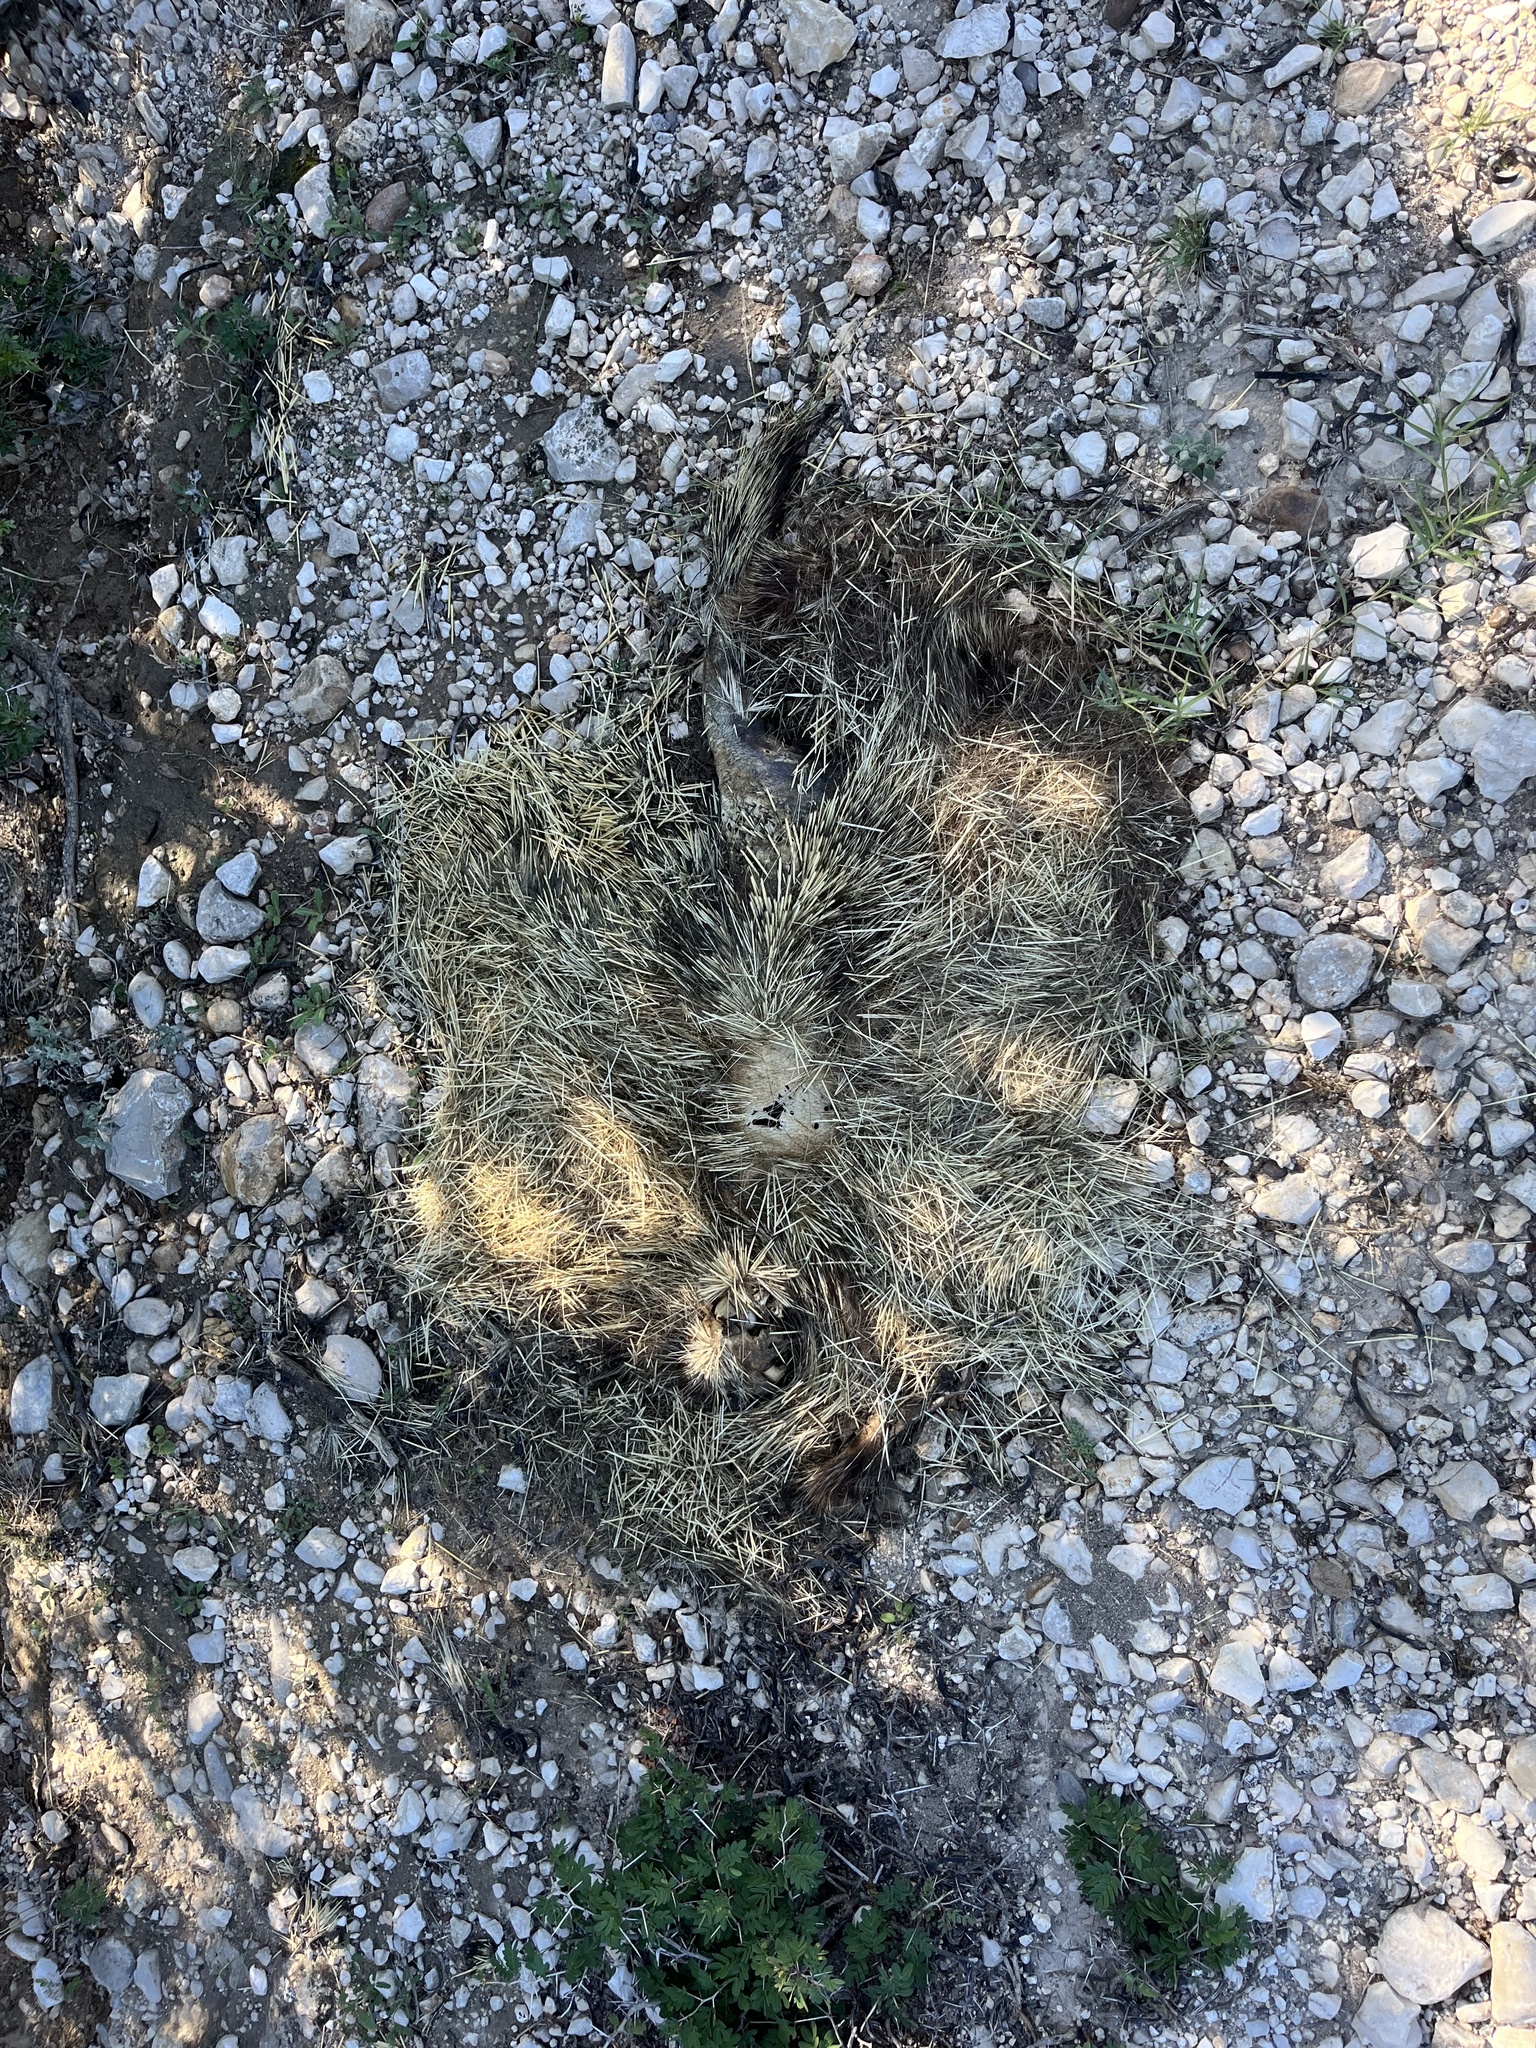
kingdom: Animalia
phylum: Chordata
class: Mammalia
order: Rodentia
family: Erethizontidae
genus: Erethizon
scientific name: Erethizon dorsatus
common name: North american porcupine
